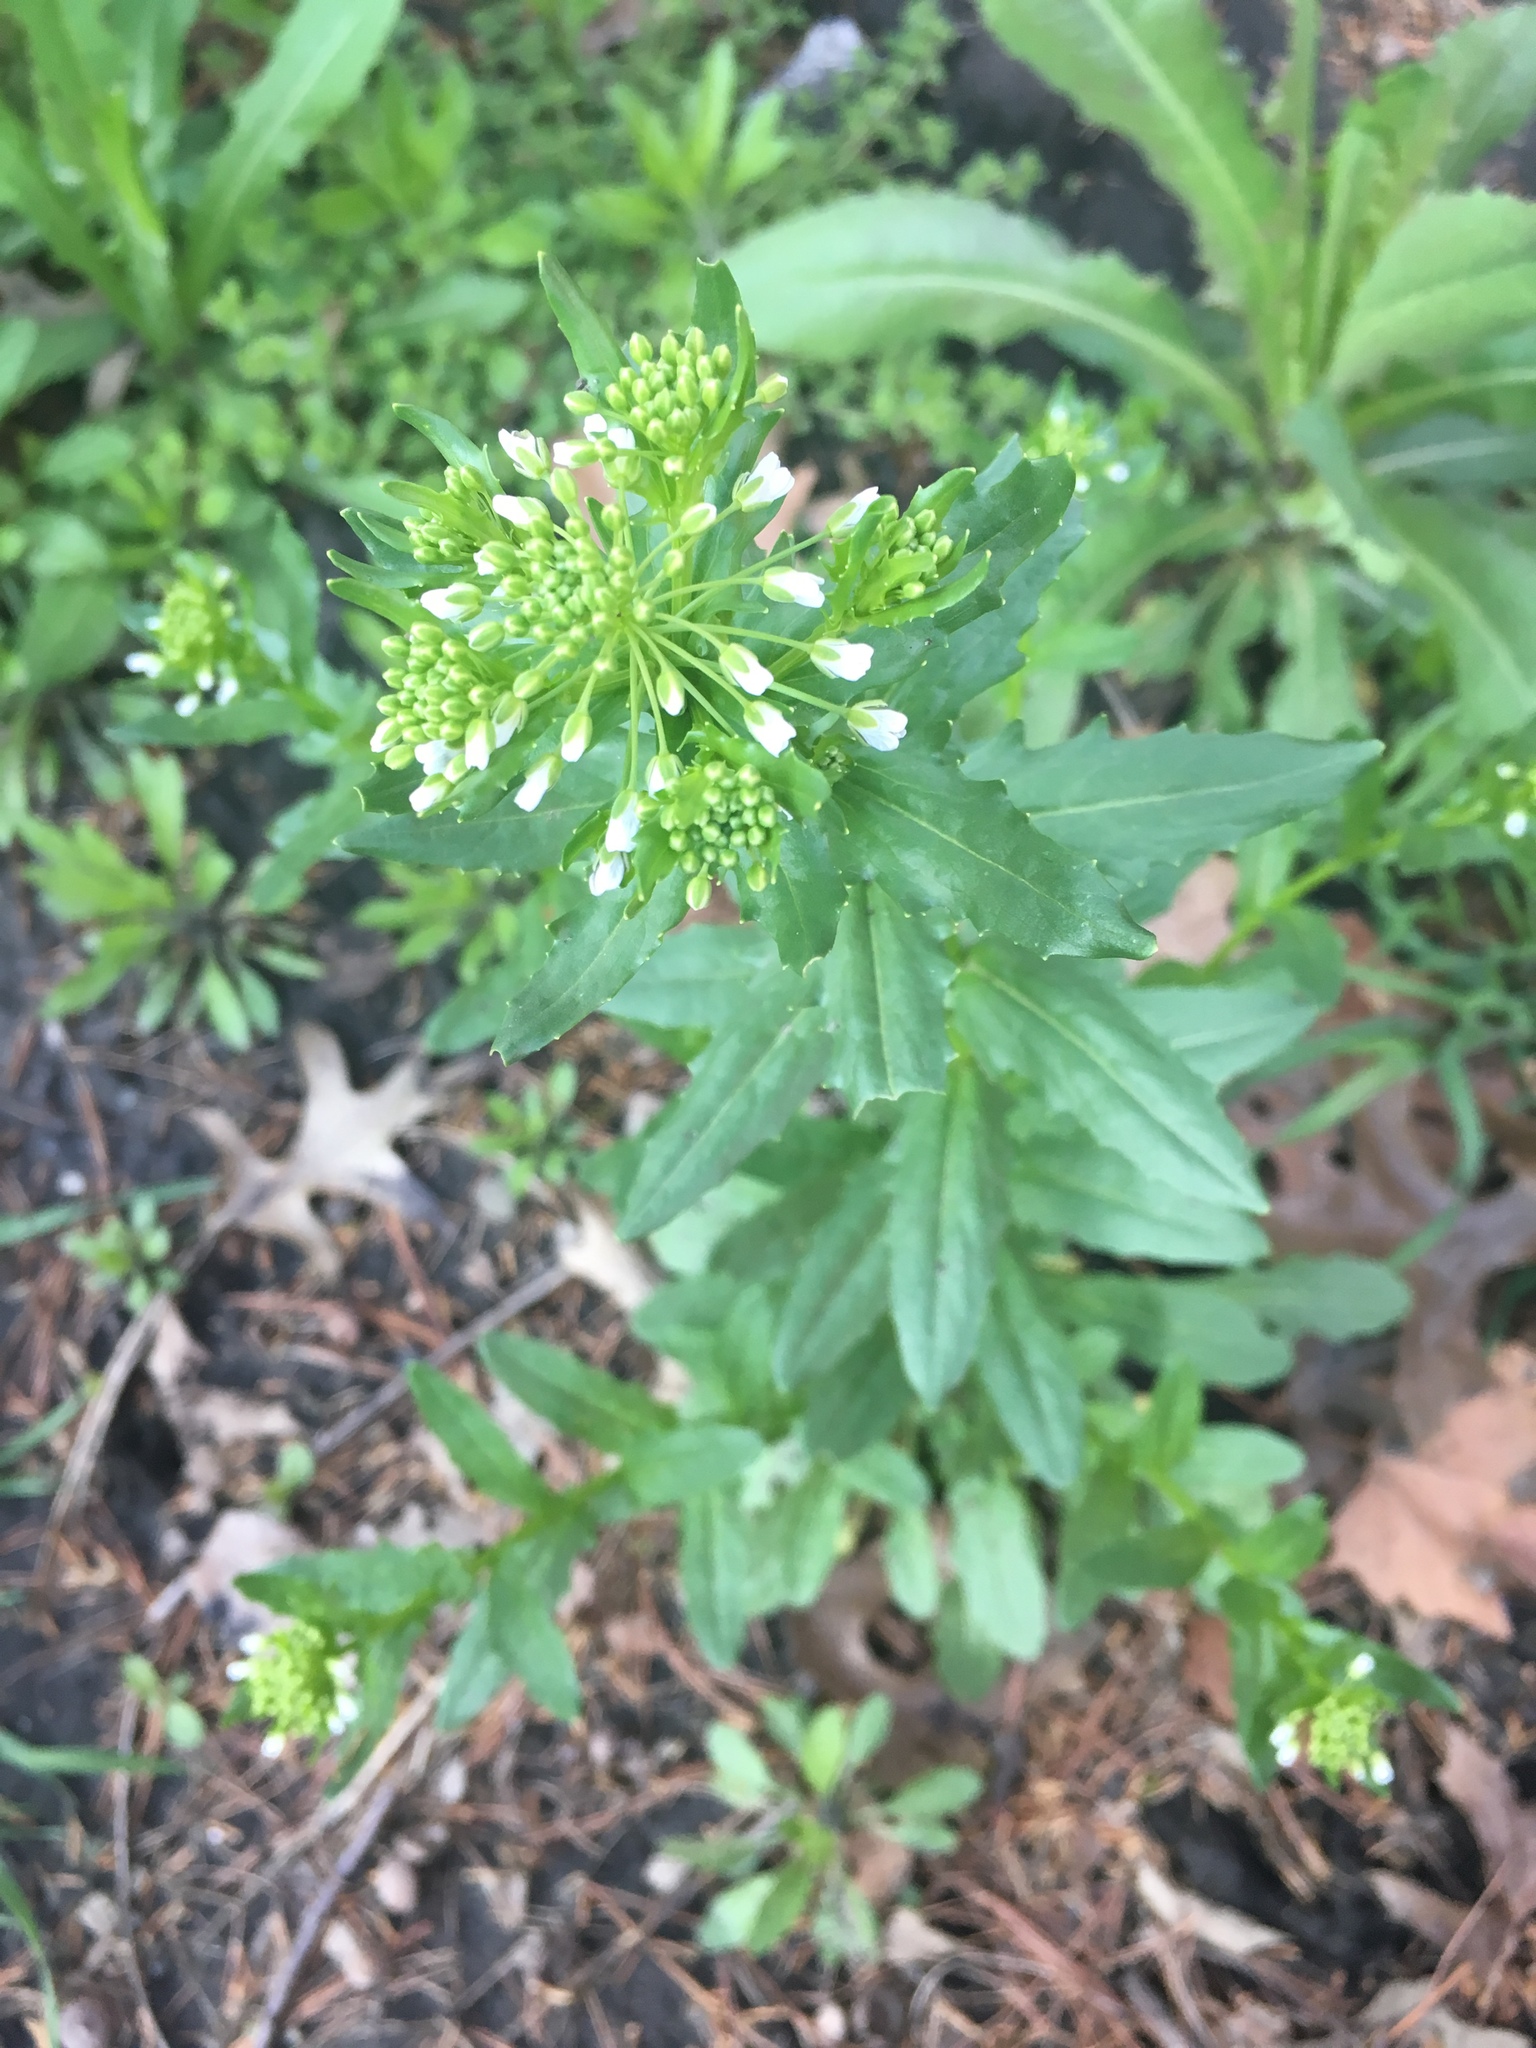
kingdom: Plantae
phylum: Tracheophyta
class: Magnoliopsida
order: Brassicales
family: Brassicaceae
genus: Thlaspi
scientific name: Thlaspi arvense
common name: Field pennycress
